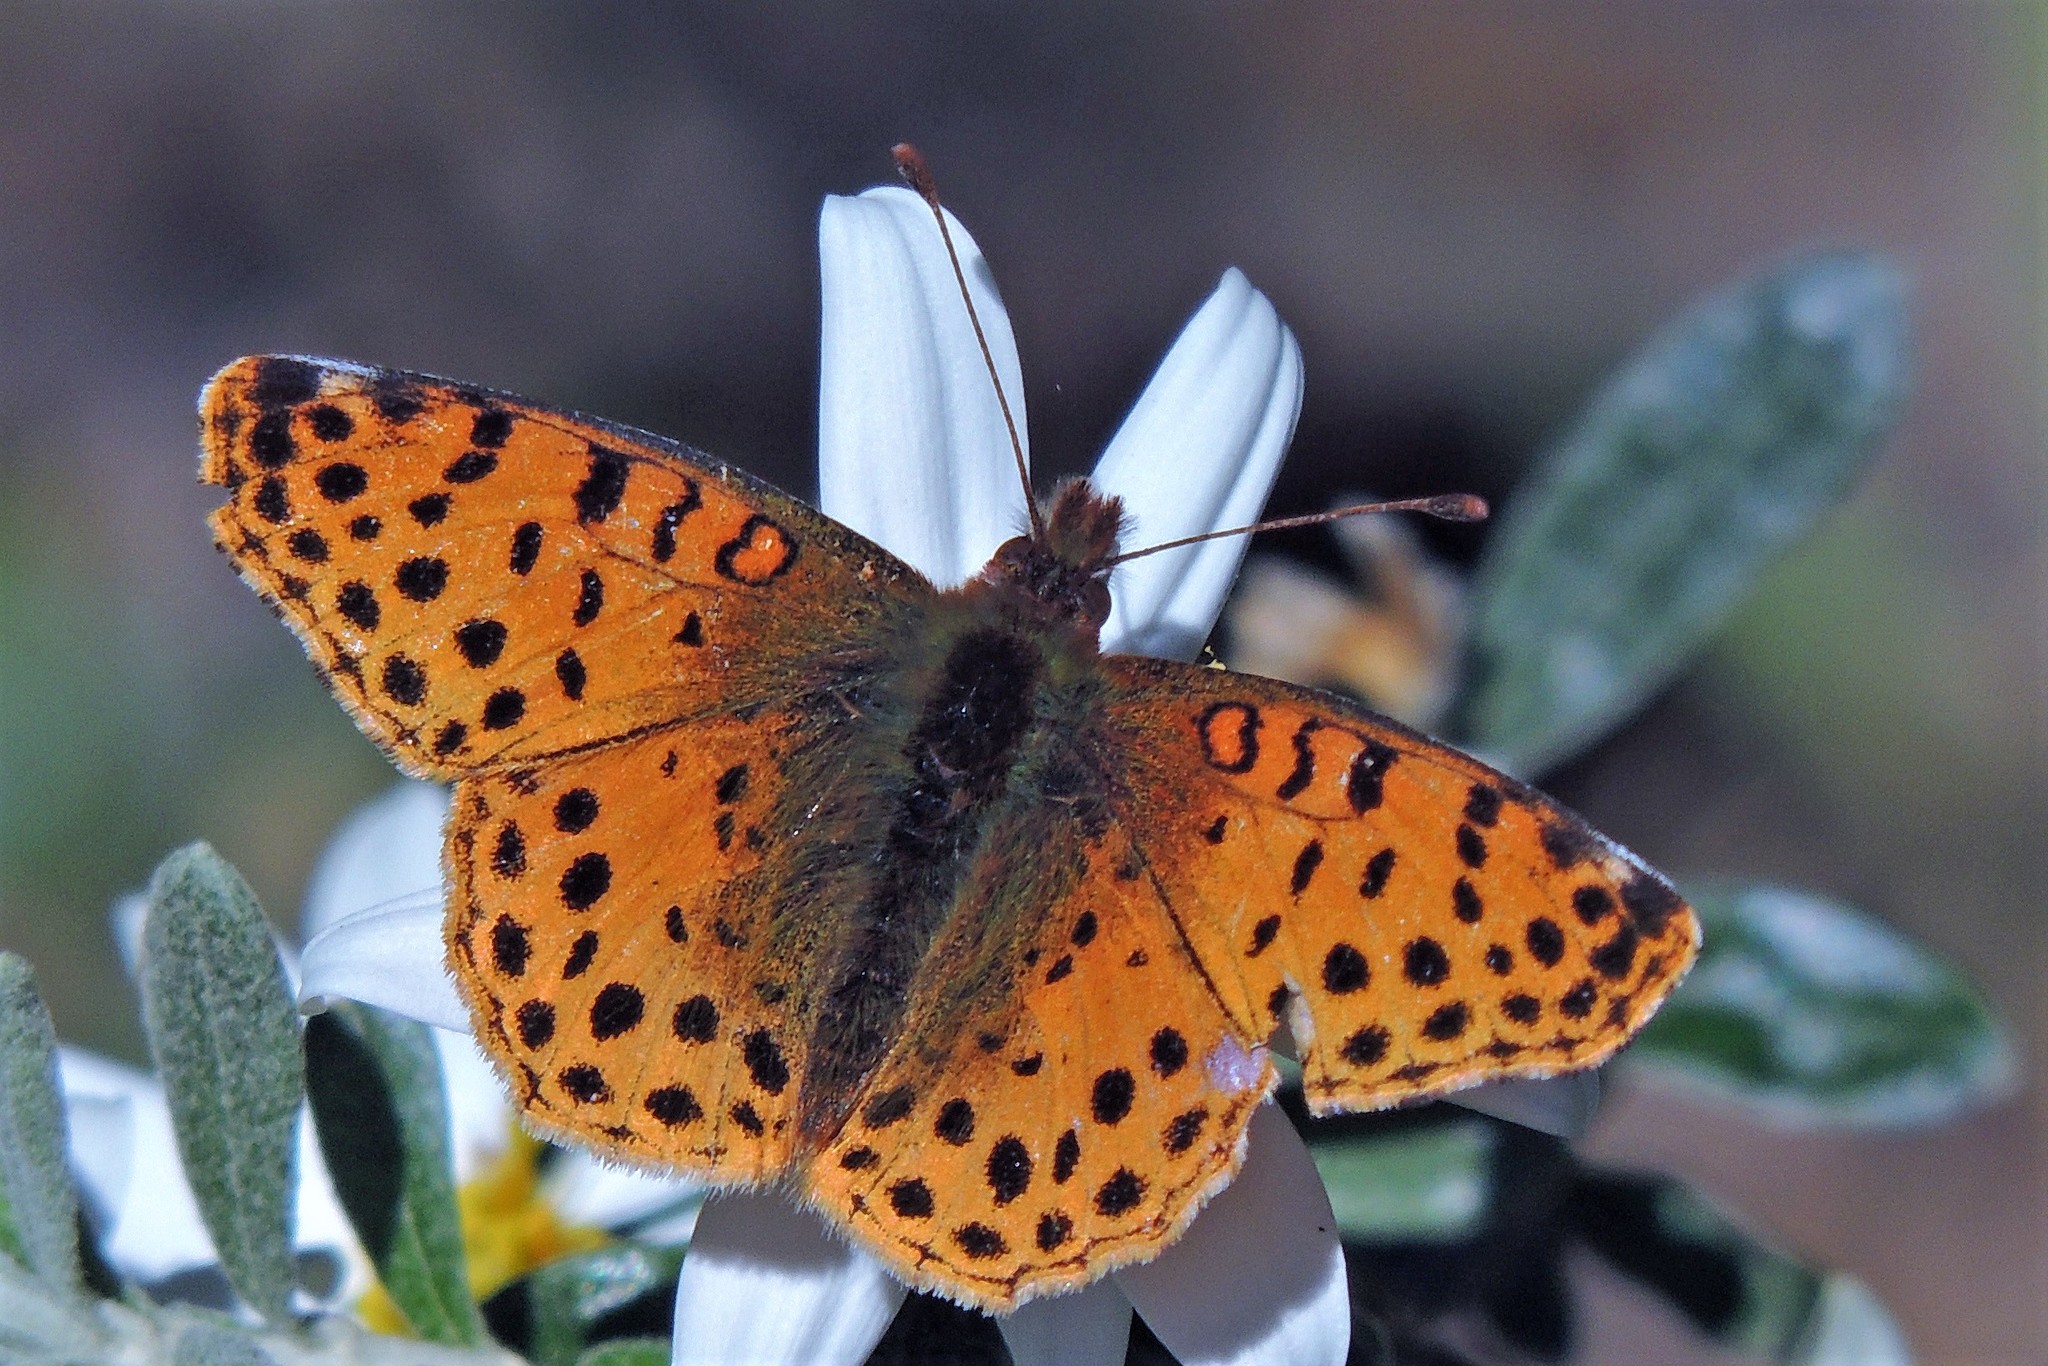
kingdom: Animalia
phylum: Arthropoda
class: Insecta
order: Lepidoptera
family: Nymphalidae
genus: Issoria
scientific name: Issoria Yramea cytheris
